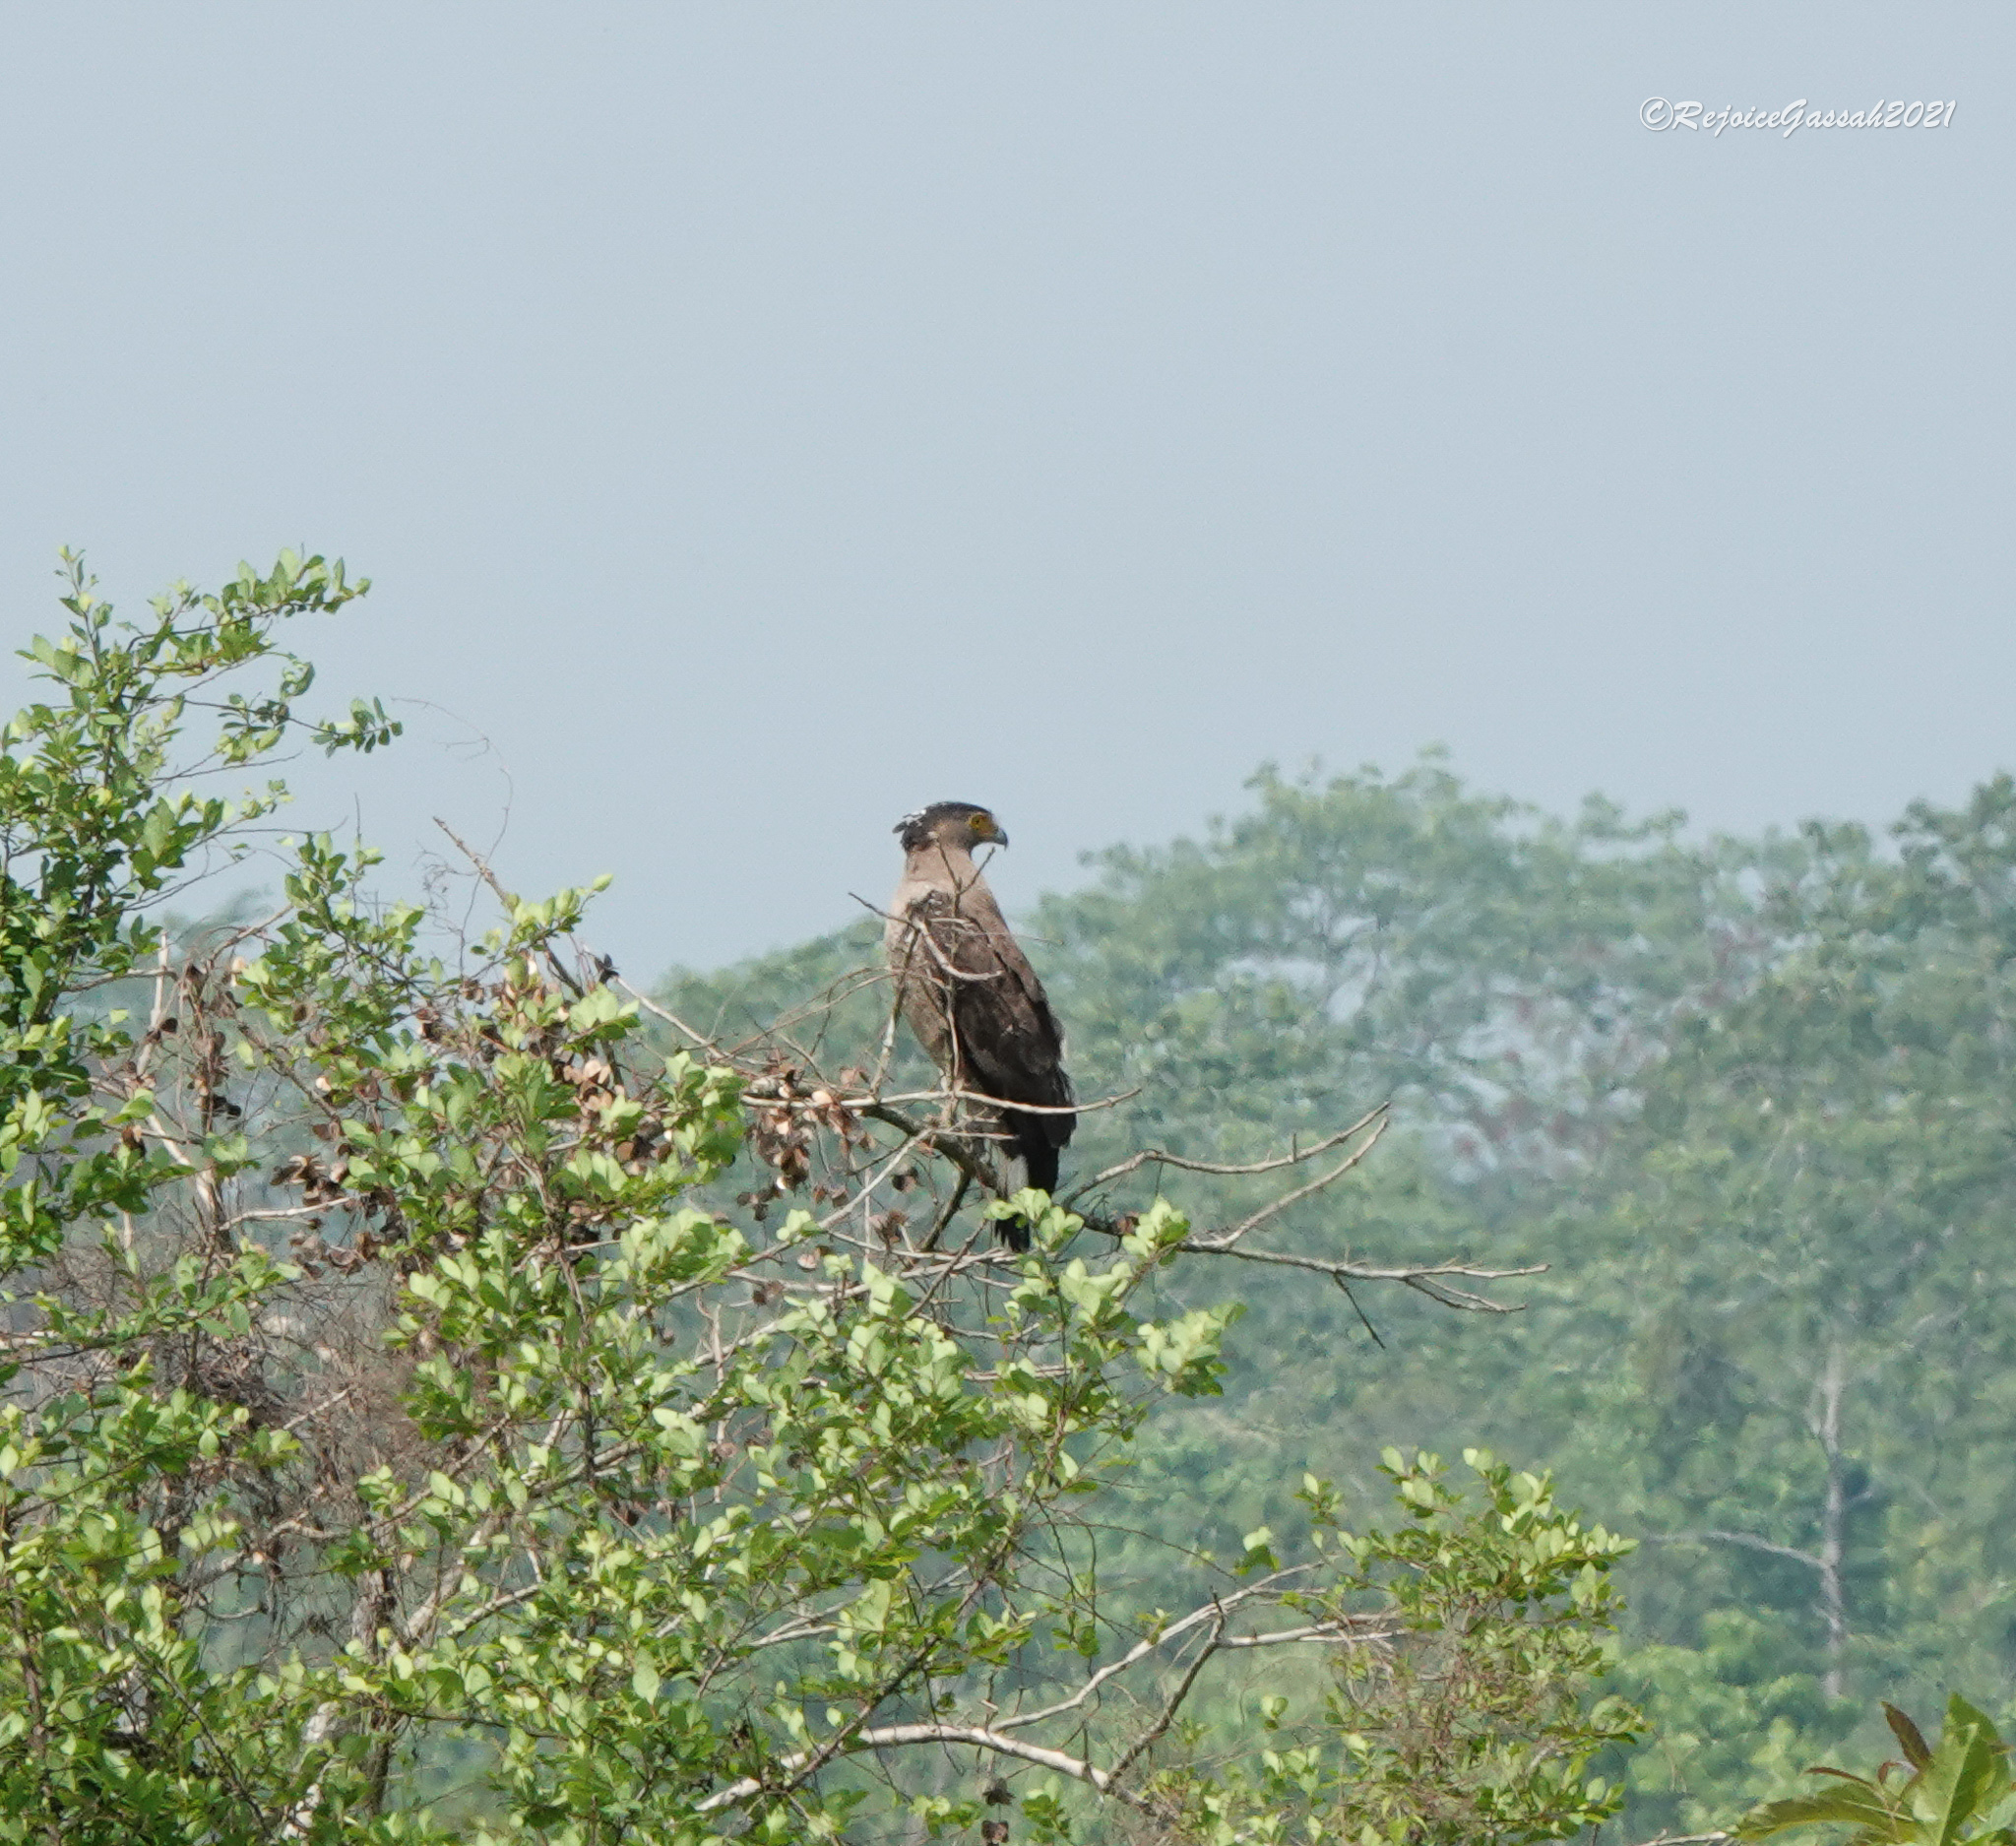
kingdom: Animalia
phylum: Chordata
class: Aves
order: Accipitriformes
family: Accipitridae
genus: Spilornis
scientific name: Spilornis cheela
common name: Crested serpent eagle
